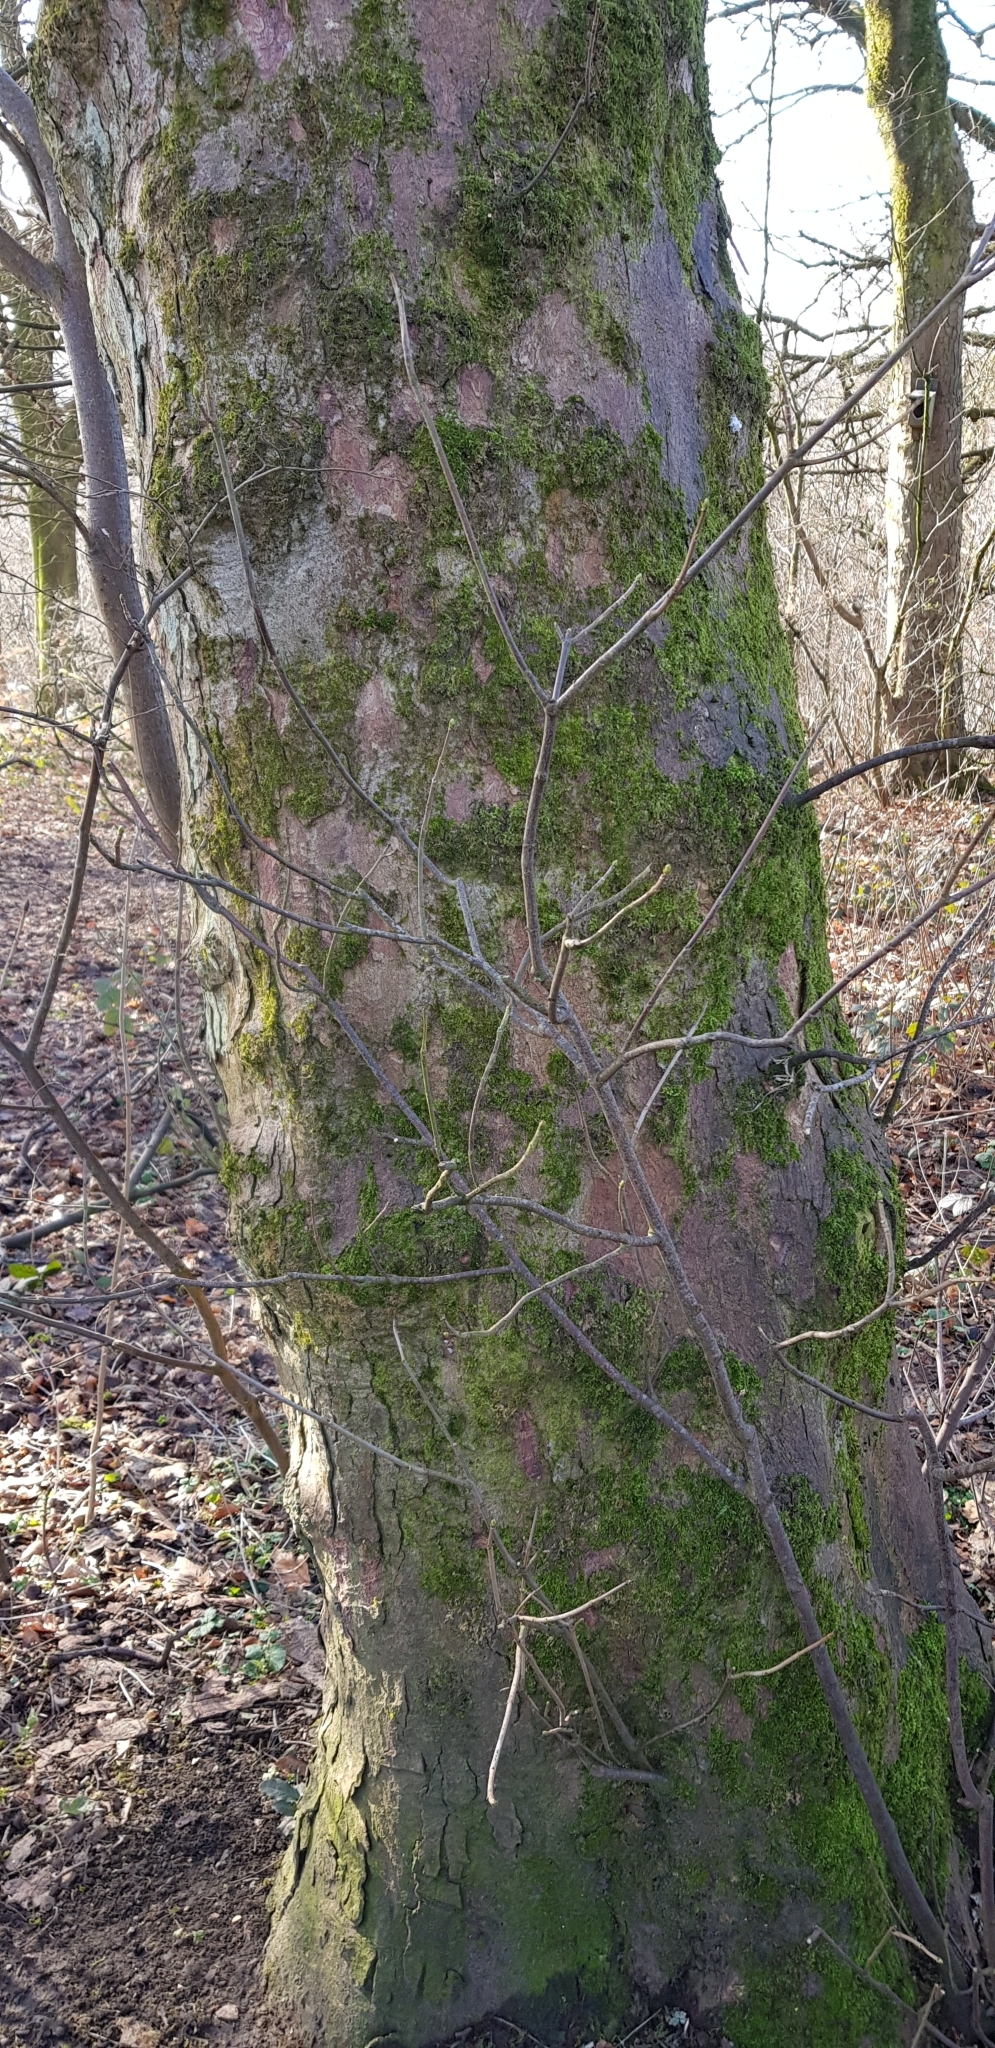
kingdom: Plantae
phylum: Marchantiophyta
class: Jungermanniopsida
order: Metzgeriales
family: Metzgeriaceae
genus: Metzgeria
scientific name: Metzgeria furcata
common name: Forked veilwort
